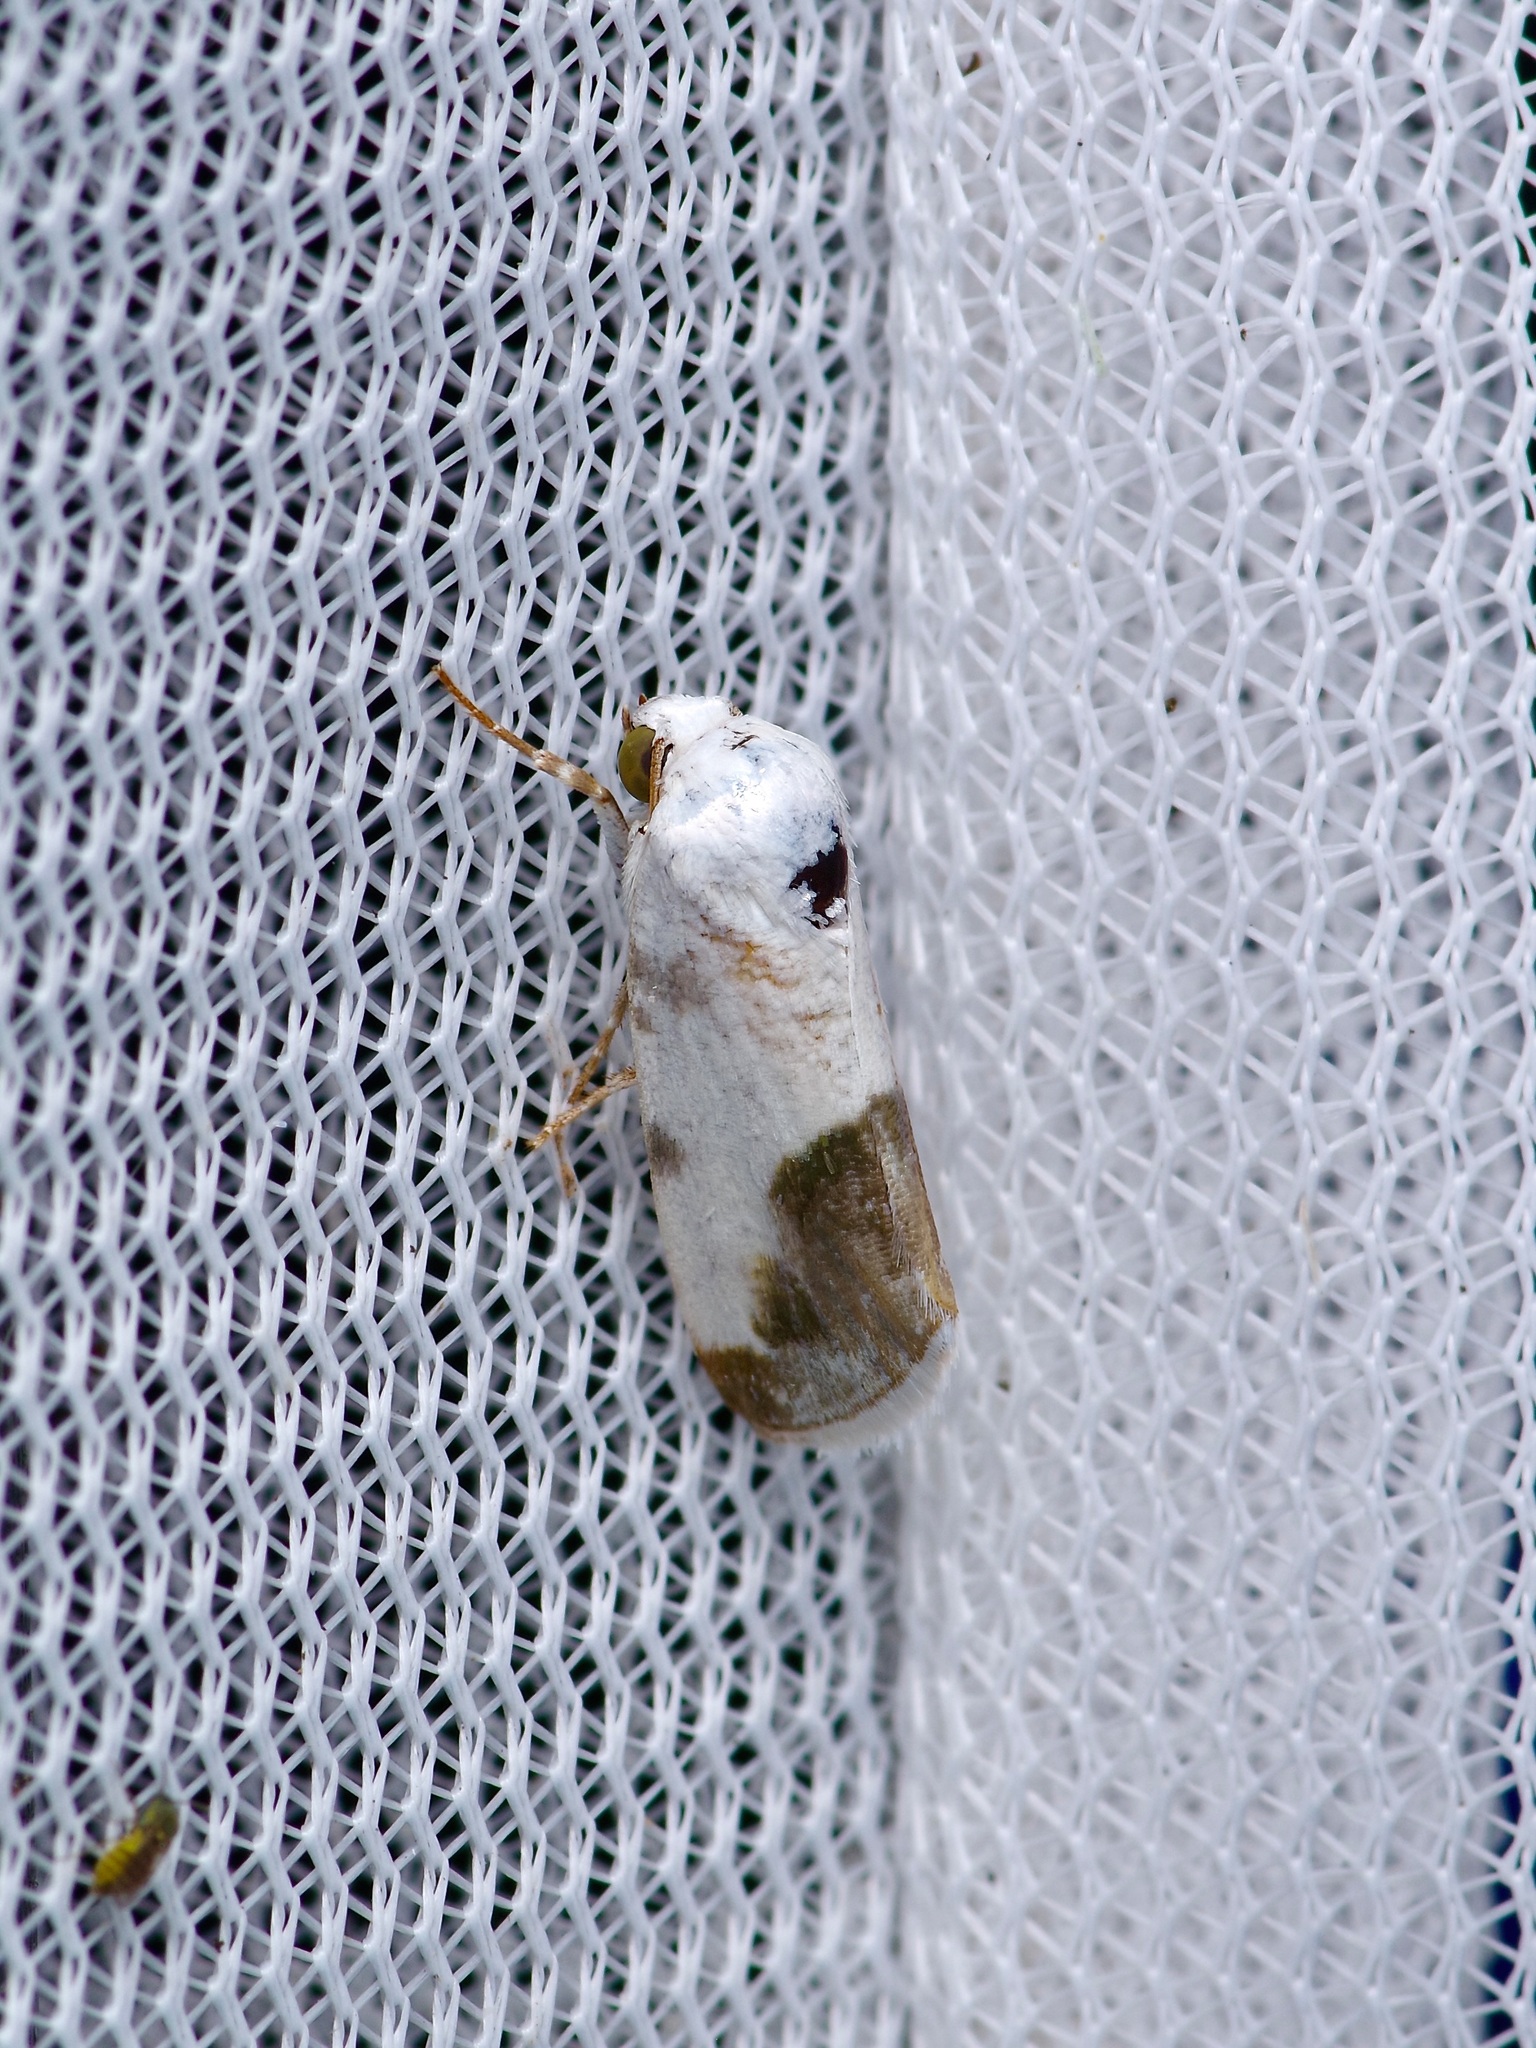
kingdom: Animalia
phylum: Arthropoda
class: Insecta
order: Lepidoptera
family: Noctuidae
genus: Acontia
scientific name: Acontia cretata
